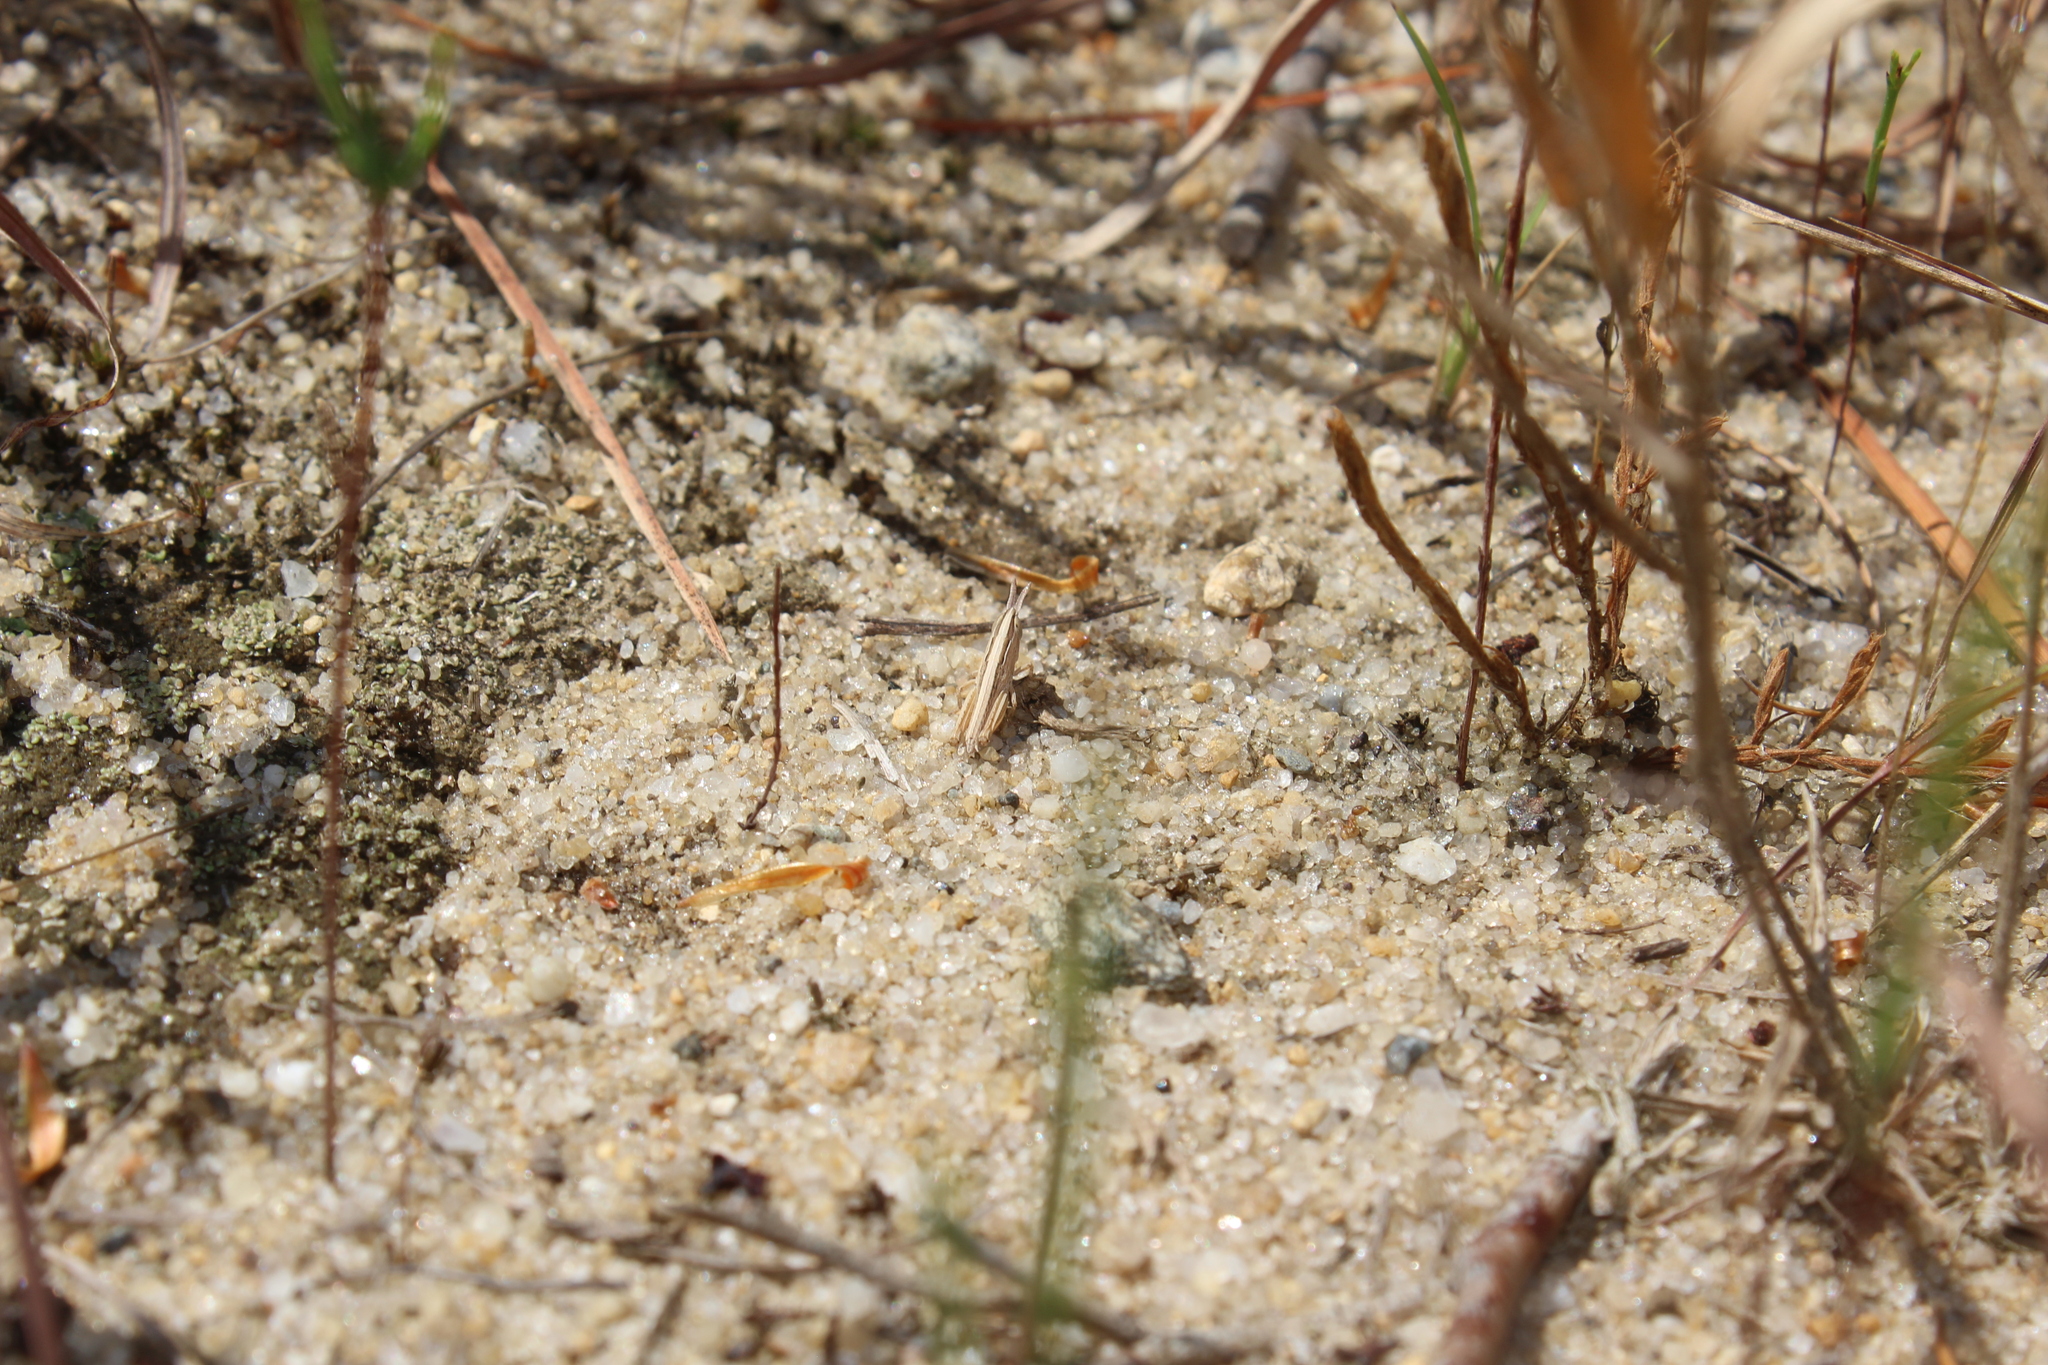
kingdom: Animalia
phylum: Arthropoda
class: Insecta
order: Orthoptera
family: Acrididae
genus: Eritettix
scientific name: Eritettix simplex
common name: Velvet-striped grasshopper
